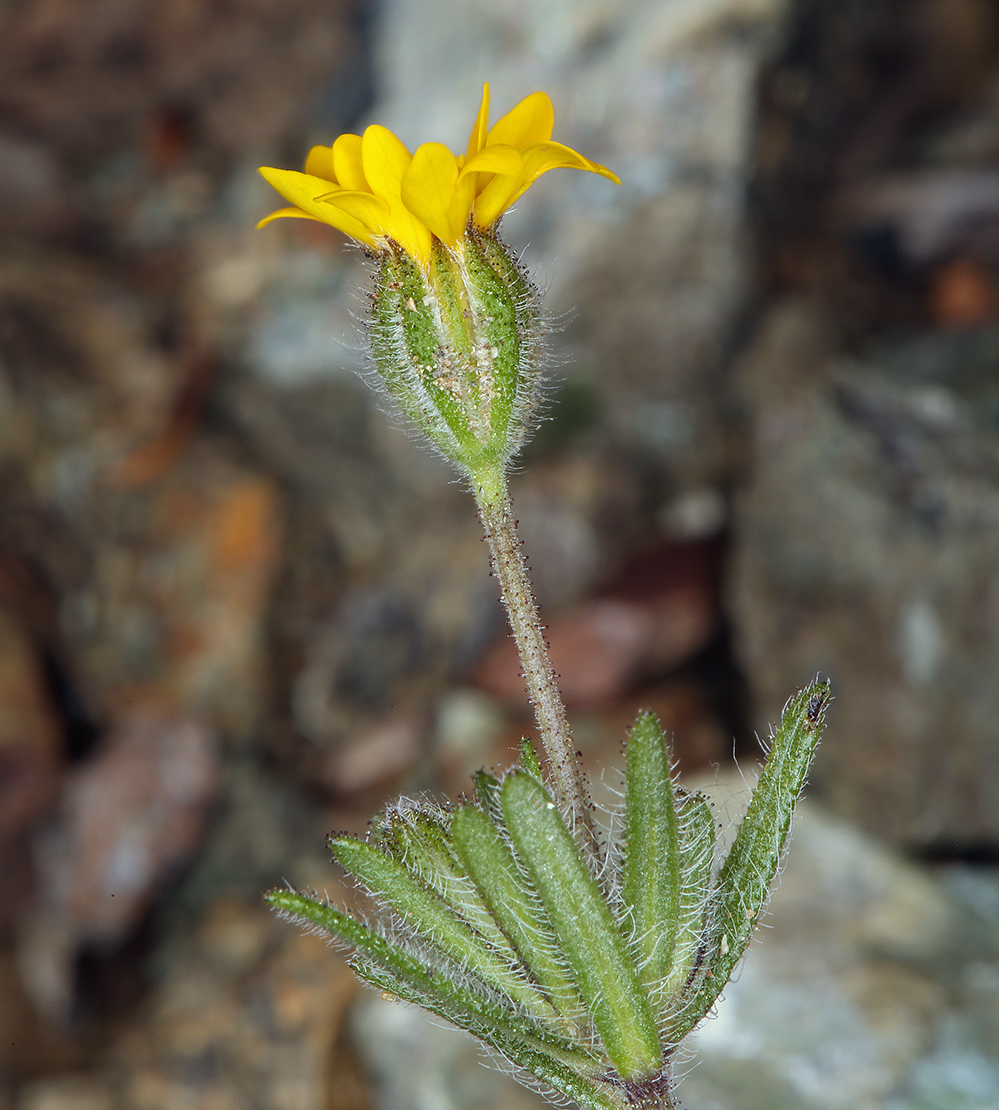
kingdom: Plantae
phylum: Tracheophyta
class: Magnoliopsida
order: Asterales
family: Asteraceae
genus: Harmonia
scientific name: Harmonia stebbinsii
